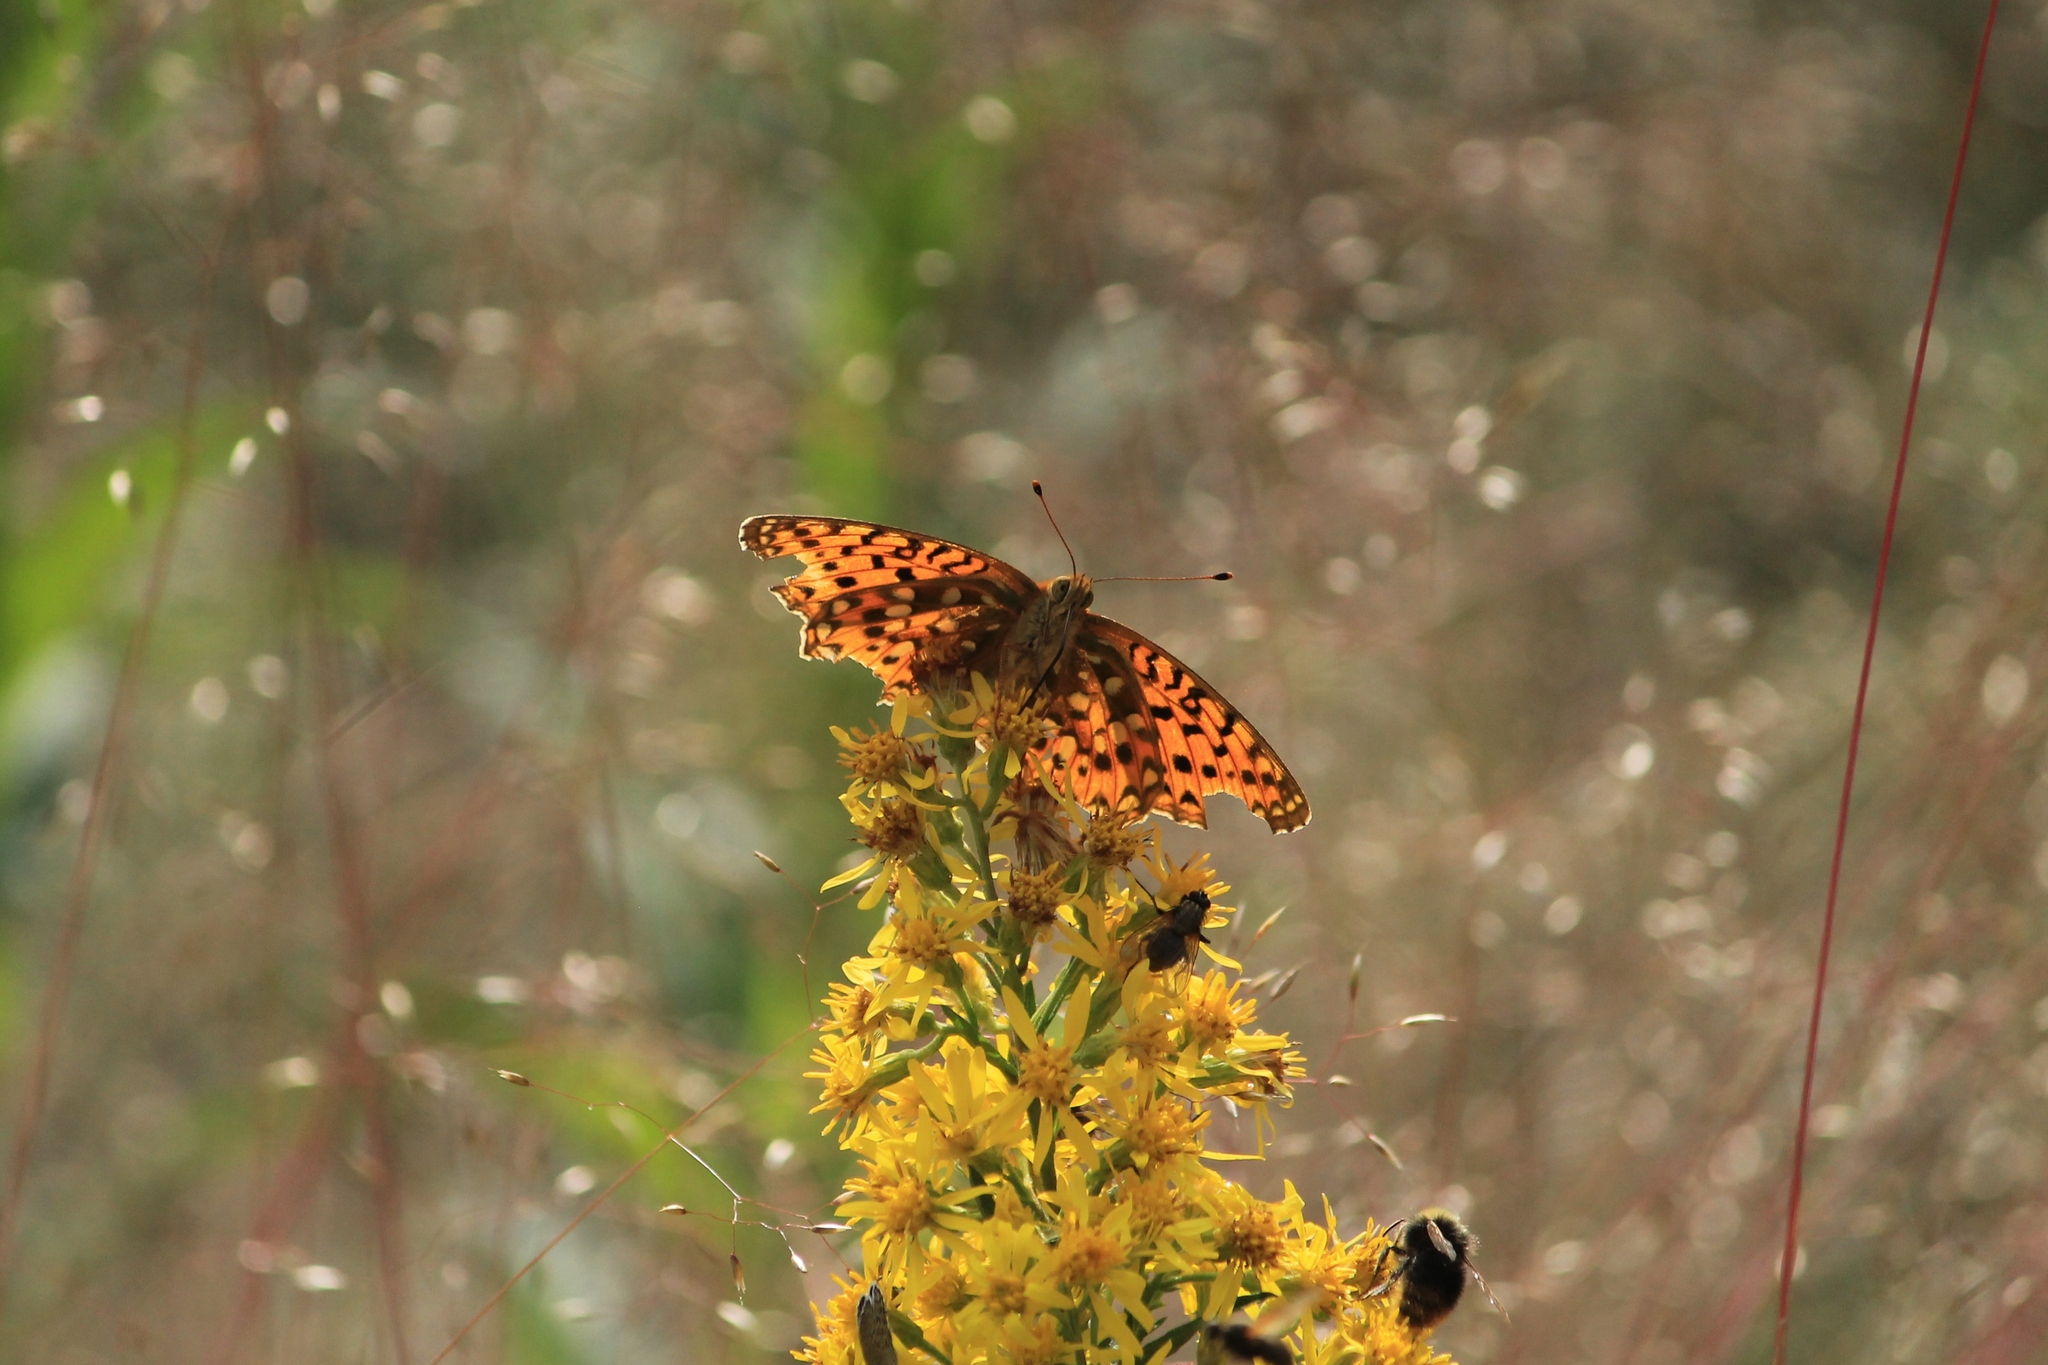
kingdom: Animalia
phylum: Arthropoda
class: Insecta
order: Lepidoptera
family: Nymphalidae
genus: Speyeria
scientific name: Speyeria aglaja
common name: Dark green fritillary
